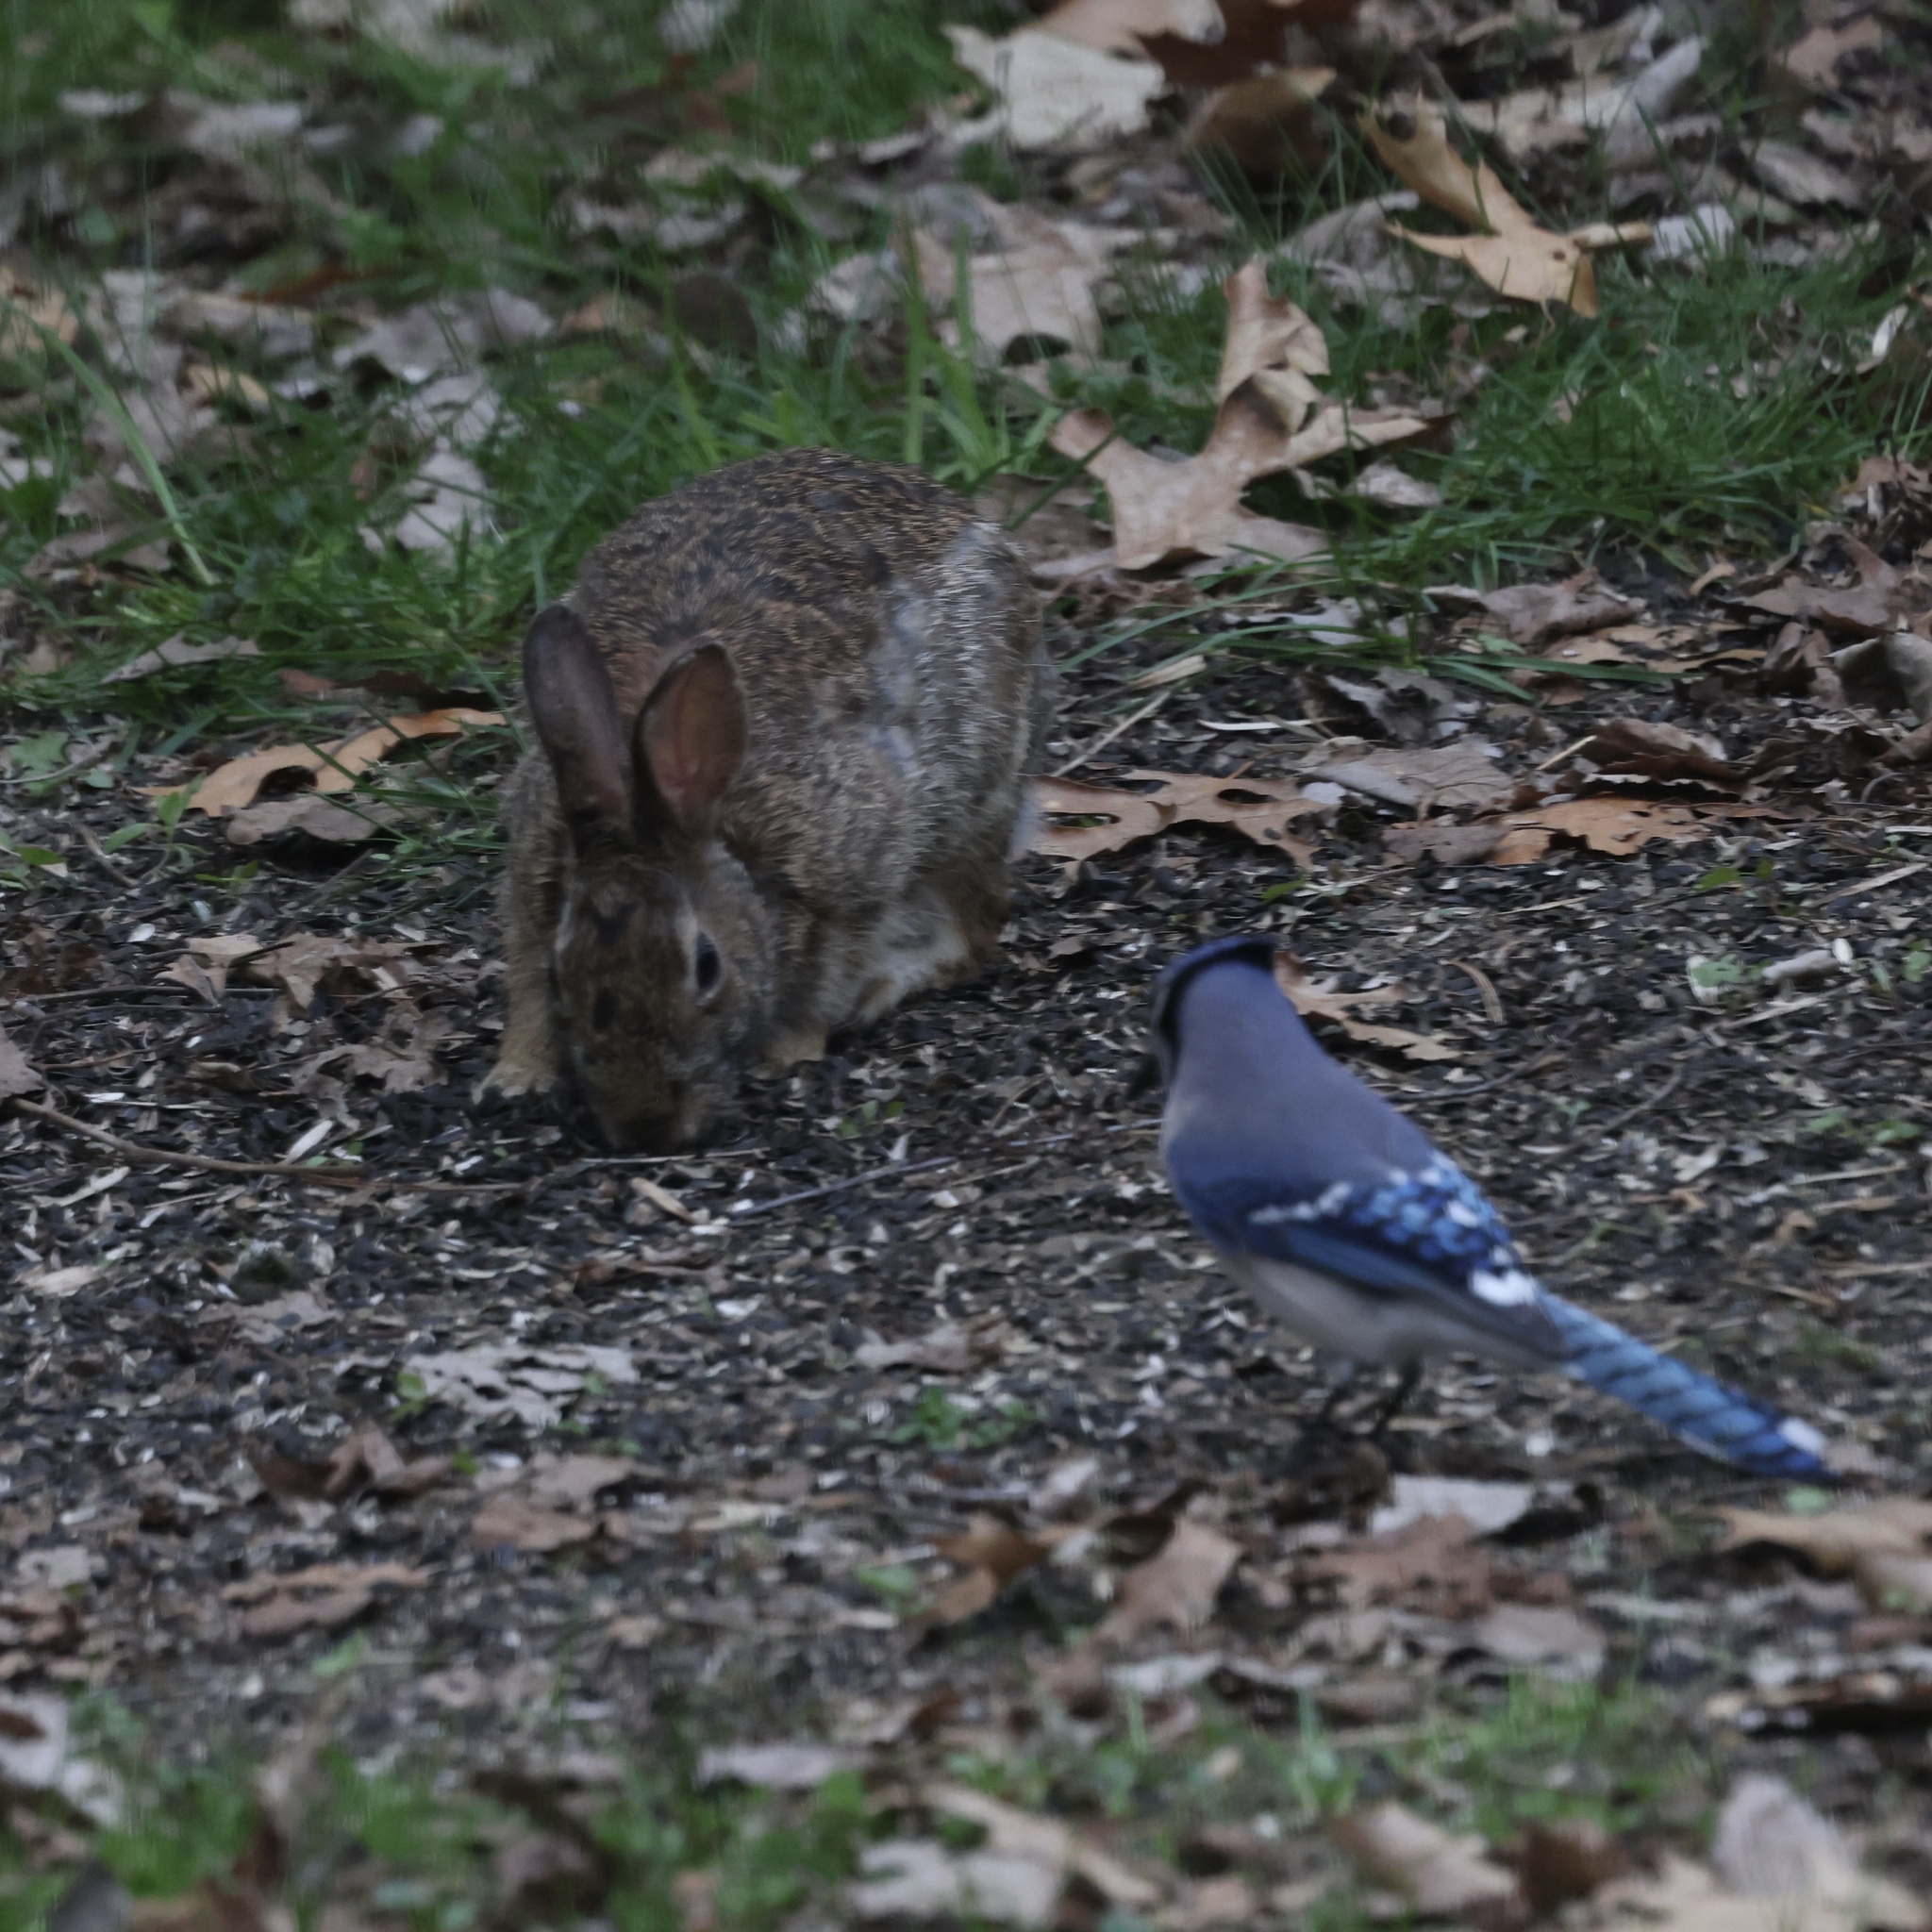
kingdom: Animalia
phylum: Chordata
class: Mammalia
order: Lagomorpha
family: Leporidae
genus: Sylvilagus
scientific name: Sylvilagus floridanus
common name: Eastern cottontail
